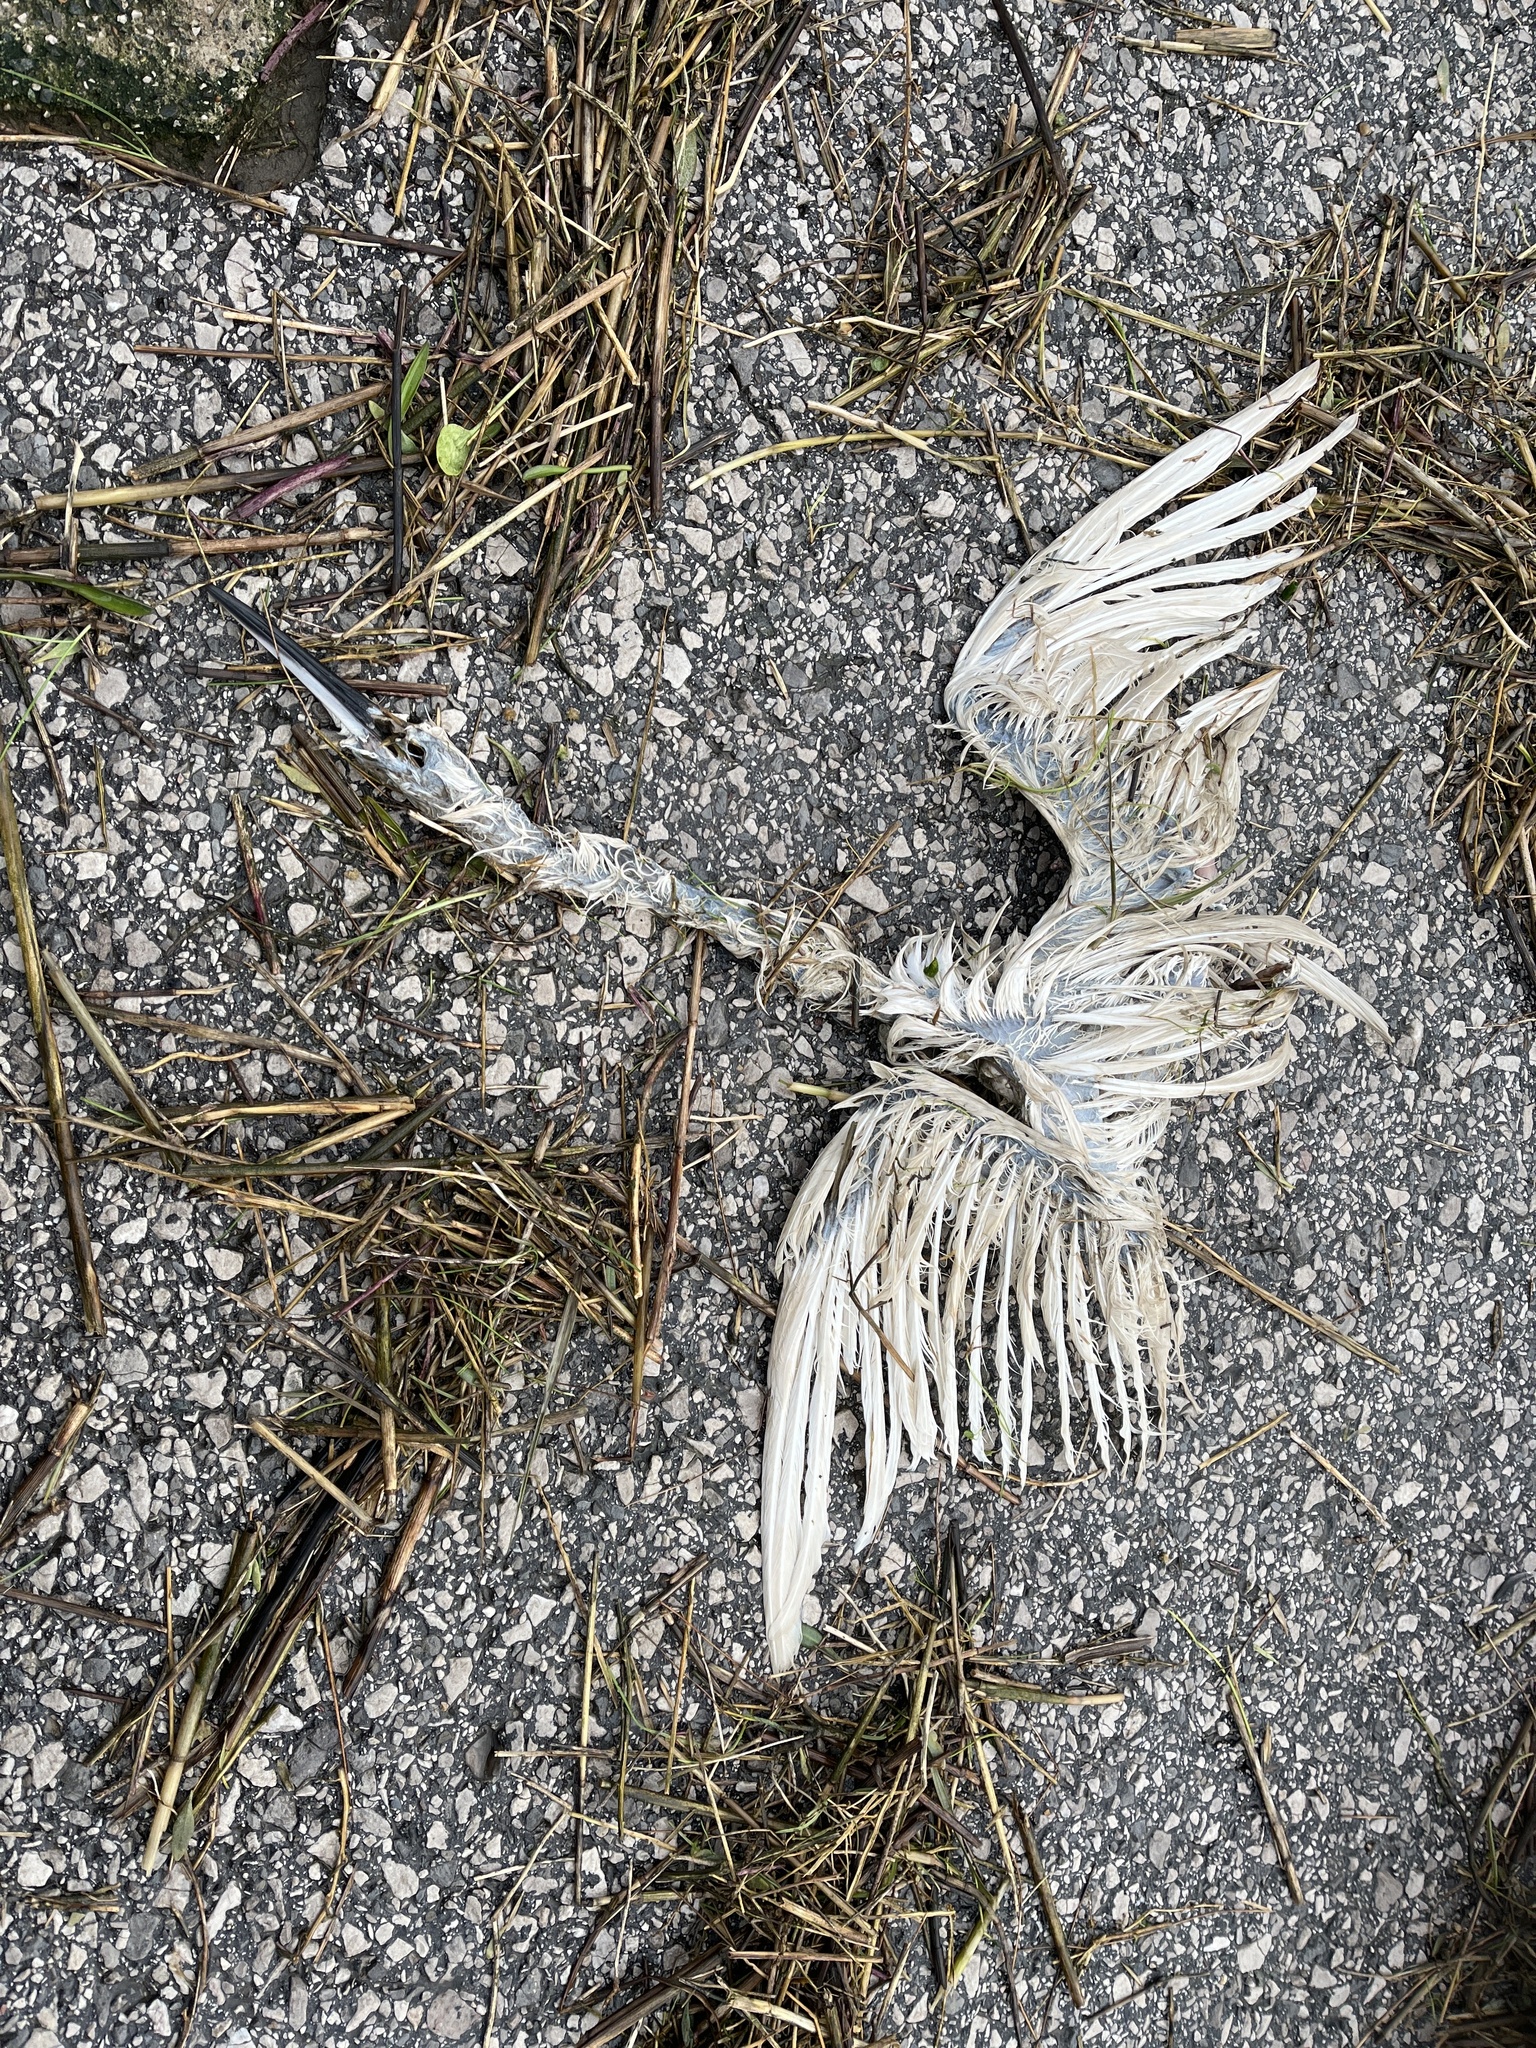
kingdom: Animalia
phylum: Chordata
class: Aves
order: Pelecaniformes
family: Ardeidae
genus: Egretta
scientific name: Egretta garzetta
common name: Little egret
